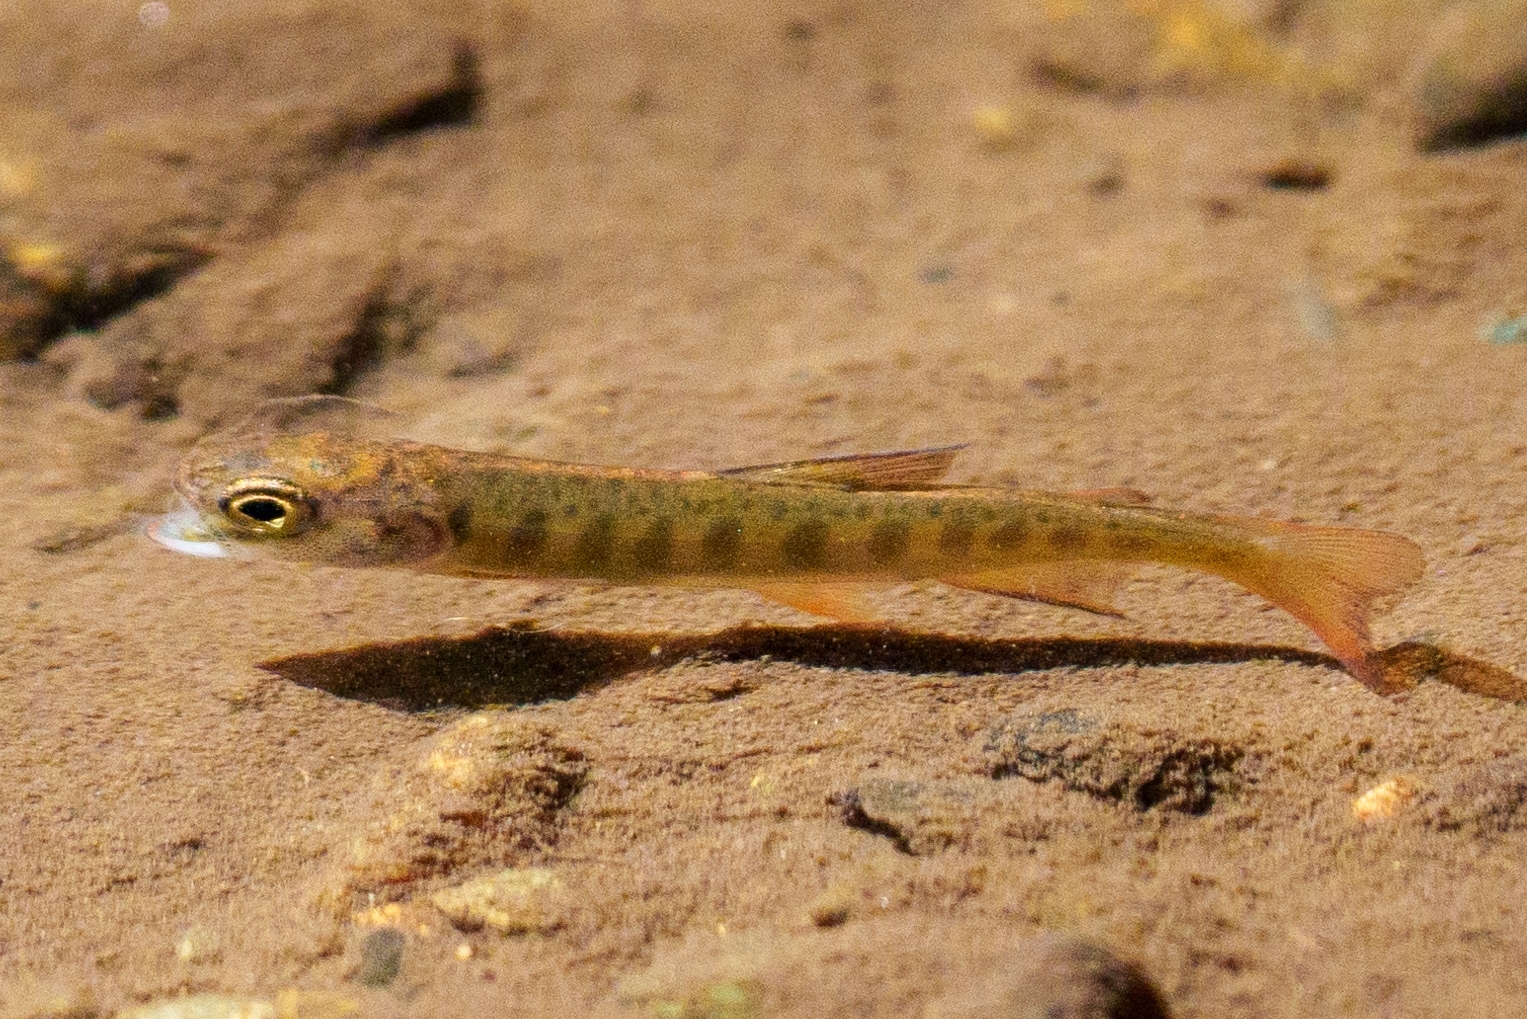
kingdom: Animalia
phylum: Chordata
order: Salmoniformes
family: Salmonidae
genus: Oncorhynchus
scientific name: Oncorhynchus kisutch
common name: Coho salmon
